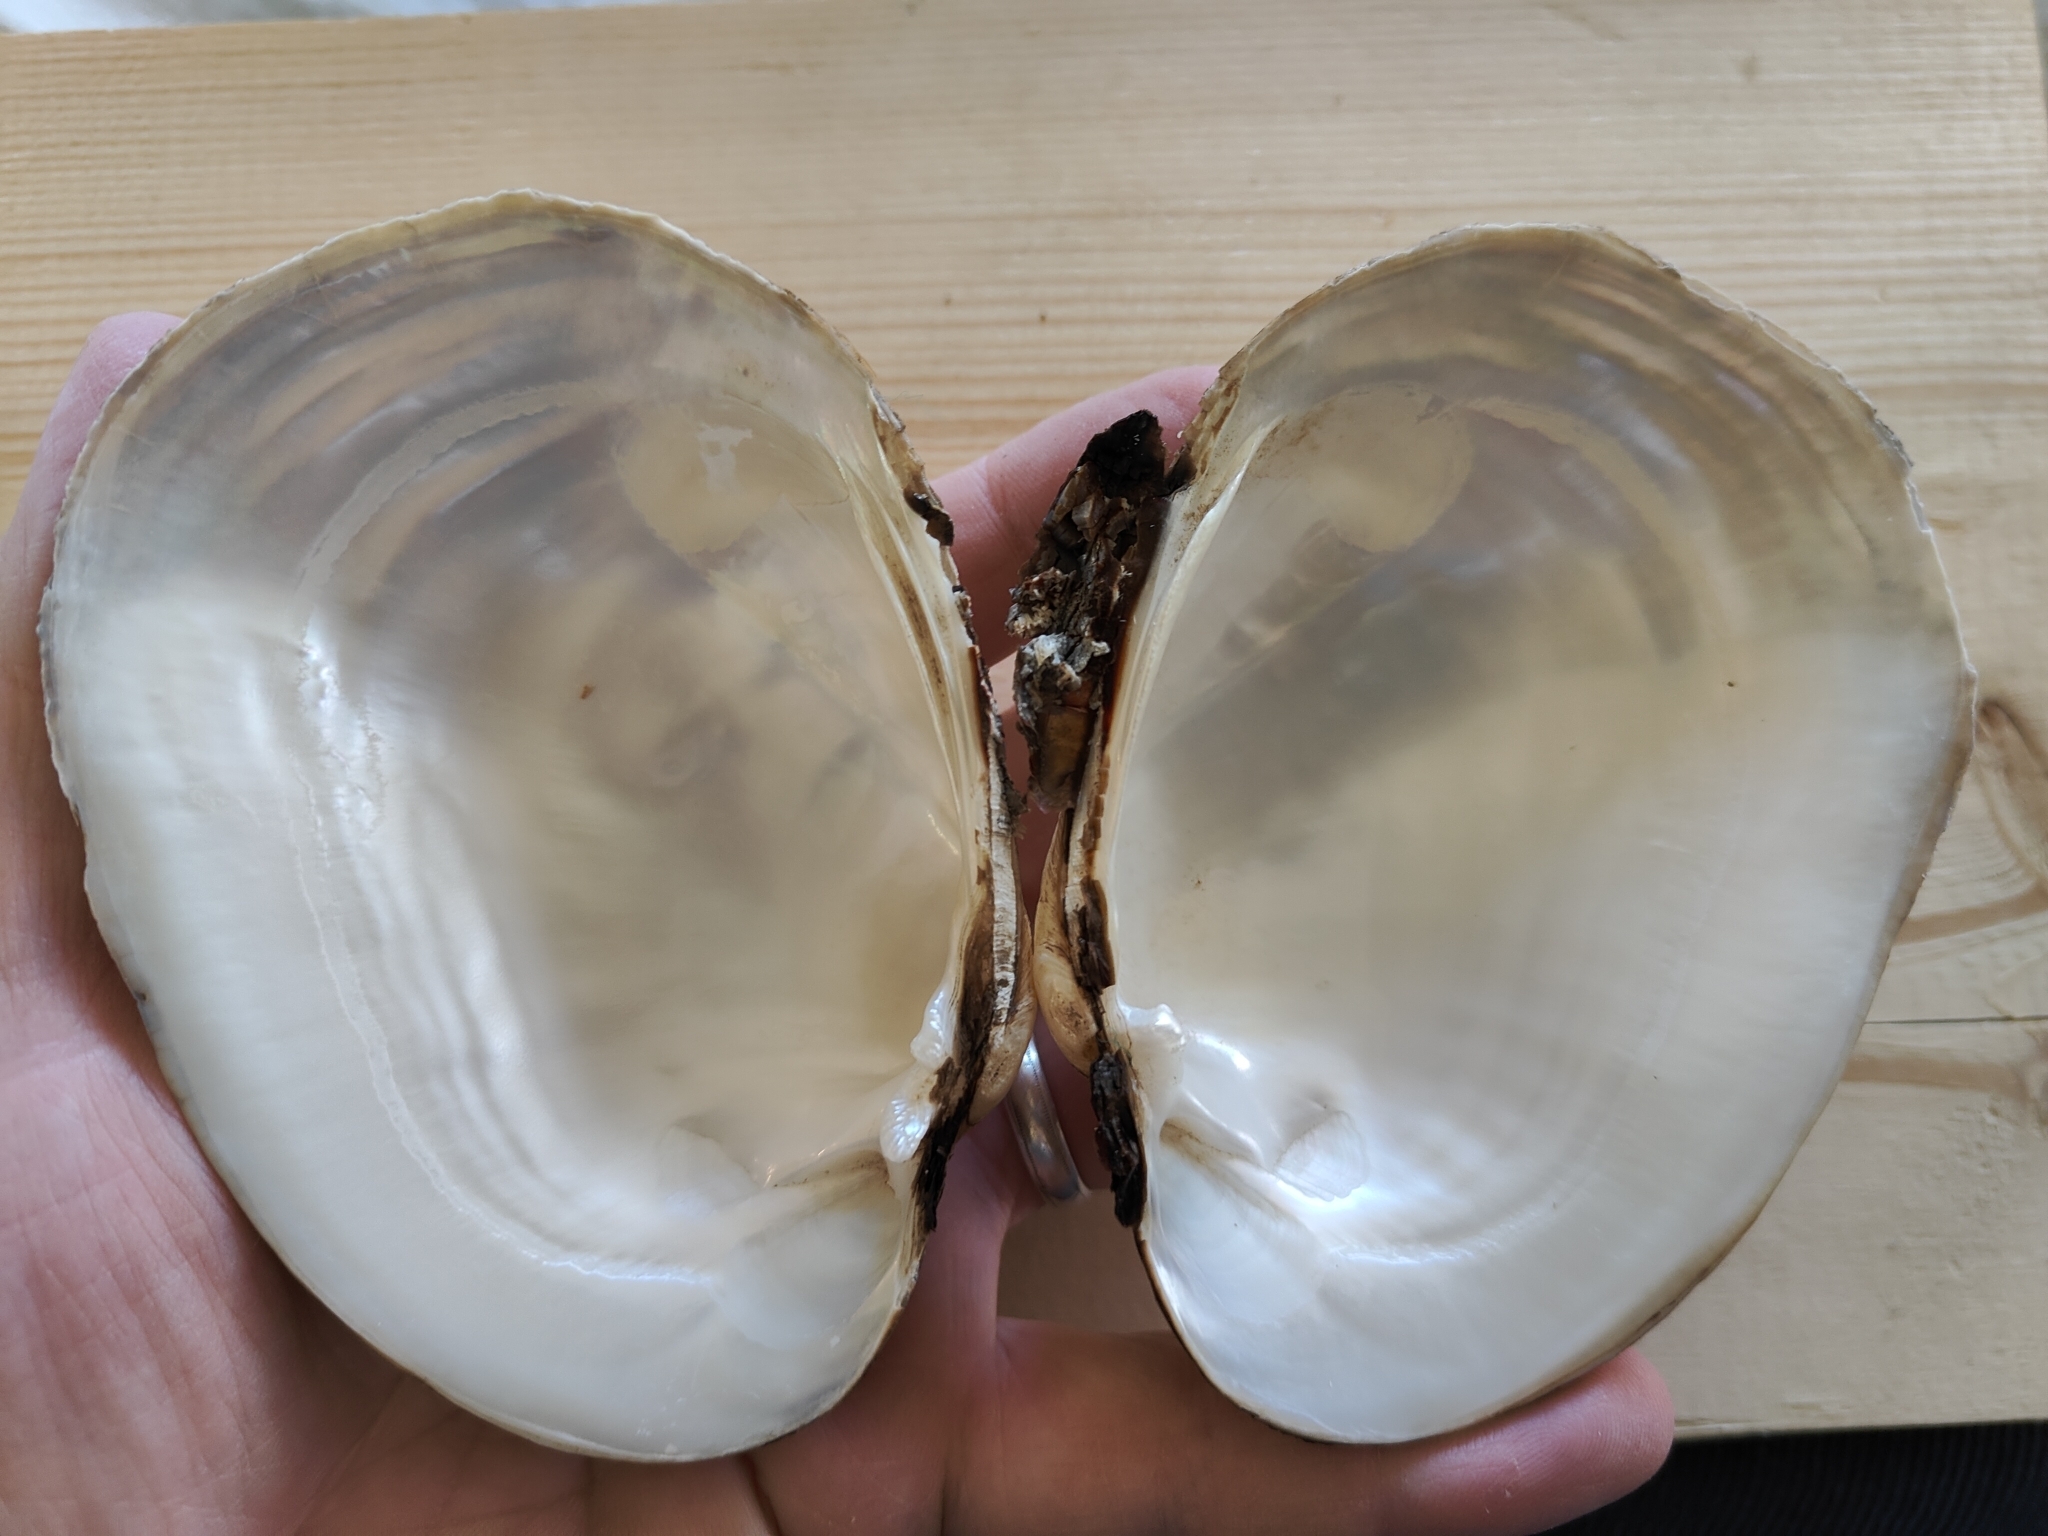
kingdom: Animalia
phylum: Mollusca
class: Bivalvia
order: Unionida
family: Unionidae
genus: Lampsilis
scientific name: Lampsilis cardium
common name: Plain pocketbook
